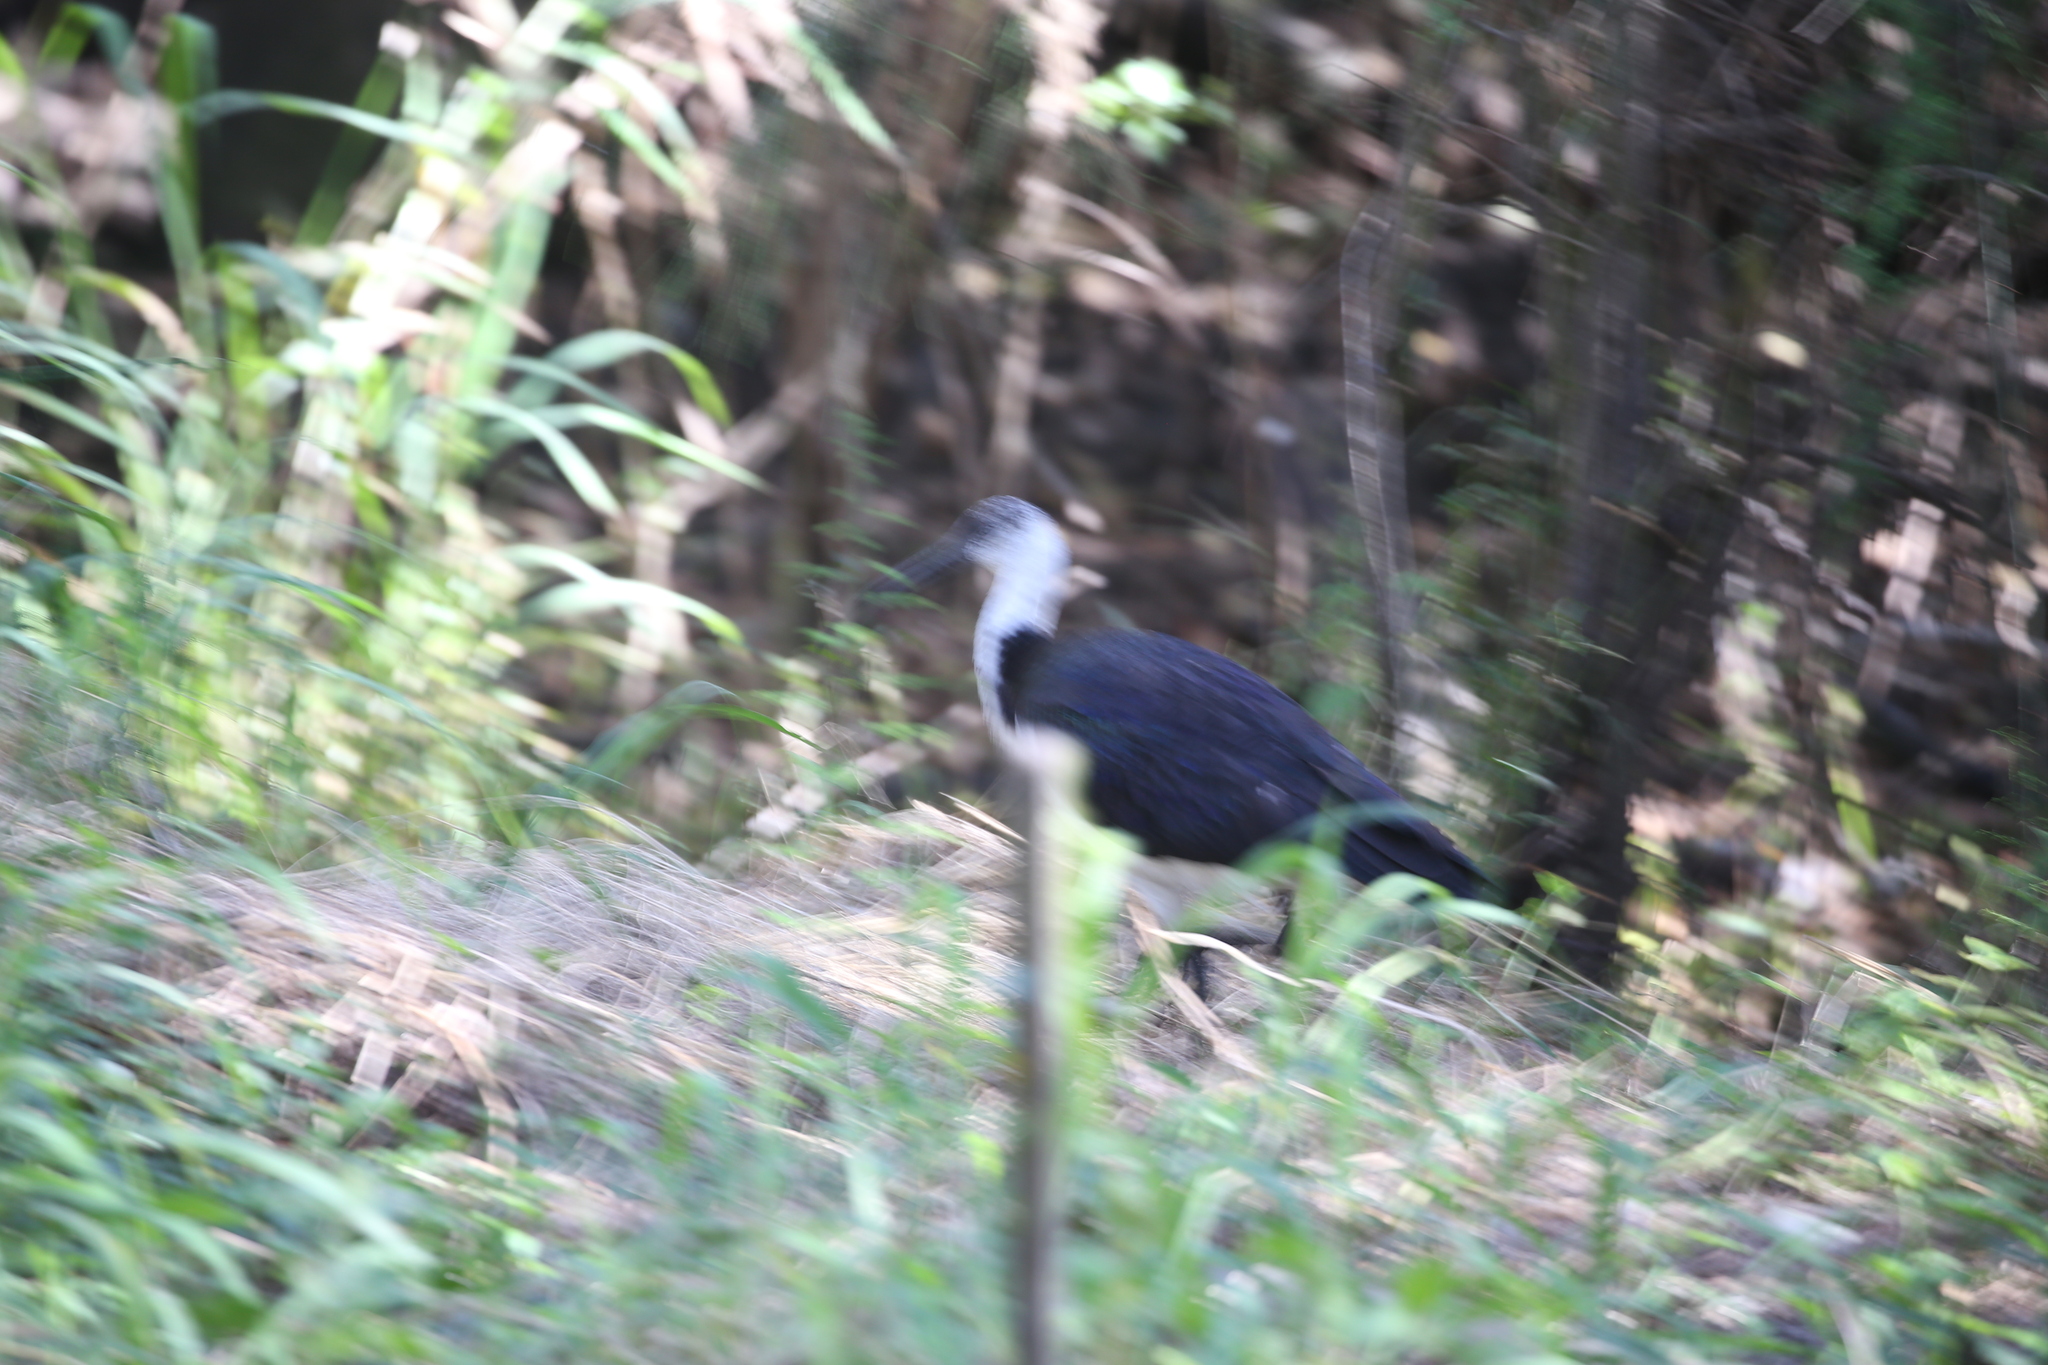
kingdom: Animalia
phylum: Chordata
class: Aves
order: Pelecaniformes
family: Threskiornithidae
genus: Threskiornis
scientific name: Threskiornis spinicollis
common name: Straw-necked ibis
